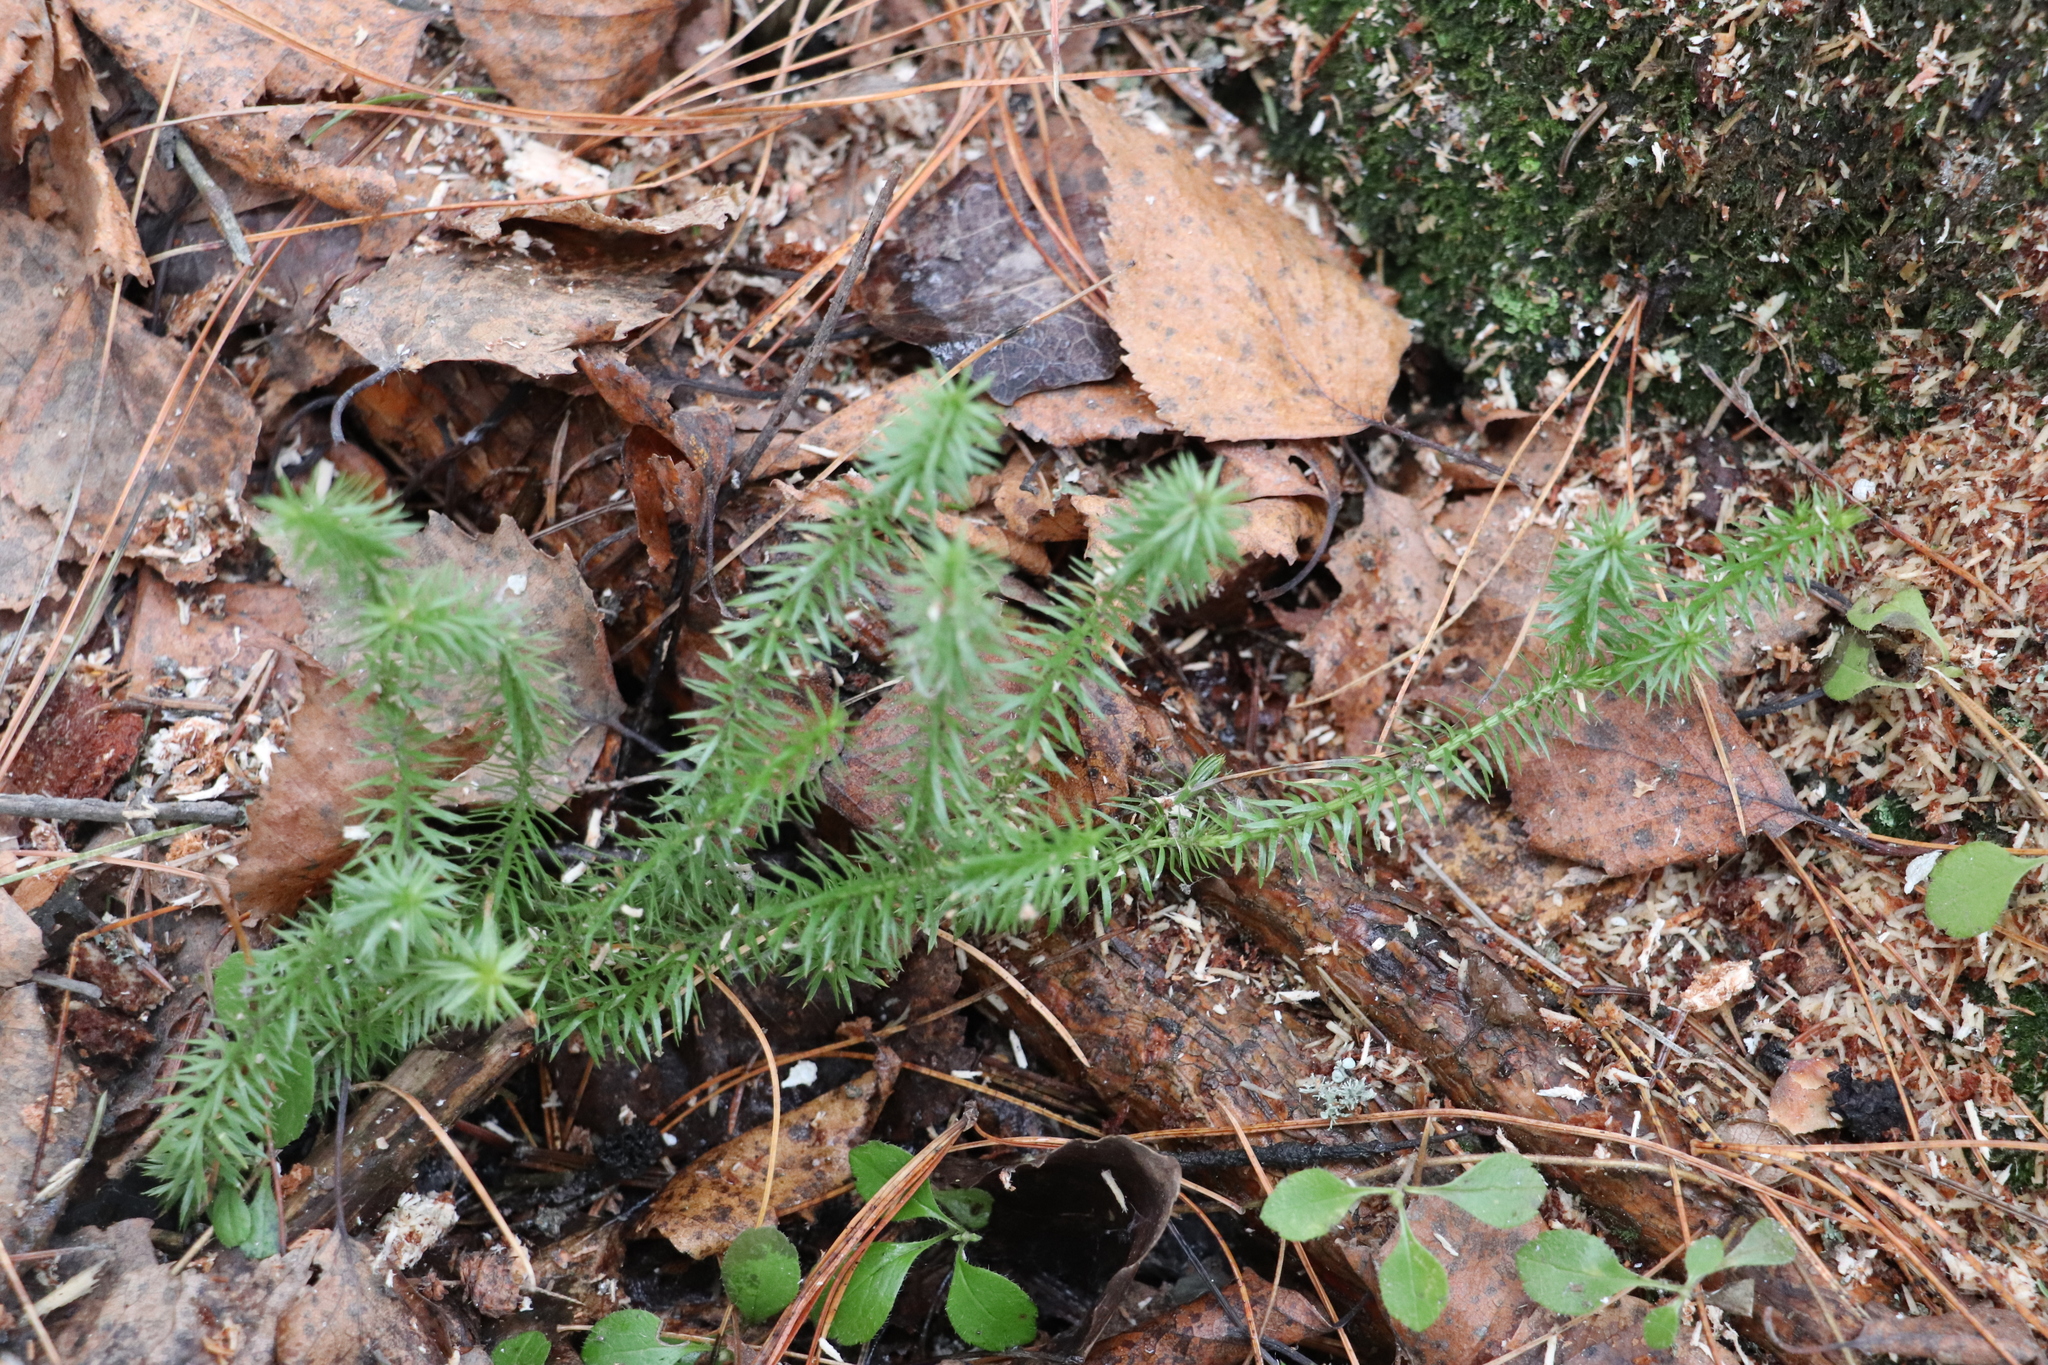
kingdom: Plantae
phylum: Tracheophyta
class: Lycopodiopsida
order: Lycopodiales
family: Lycopodiaceae
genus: Spinulum
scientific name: Spinulum annotinum
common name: Interrupted club-moss
